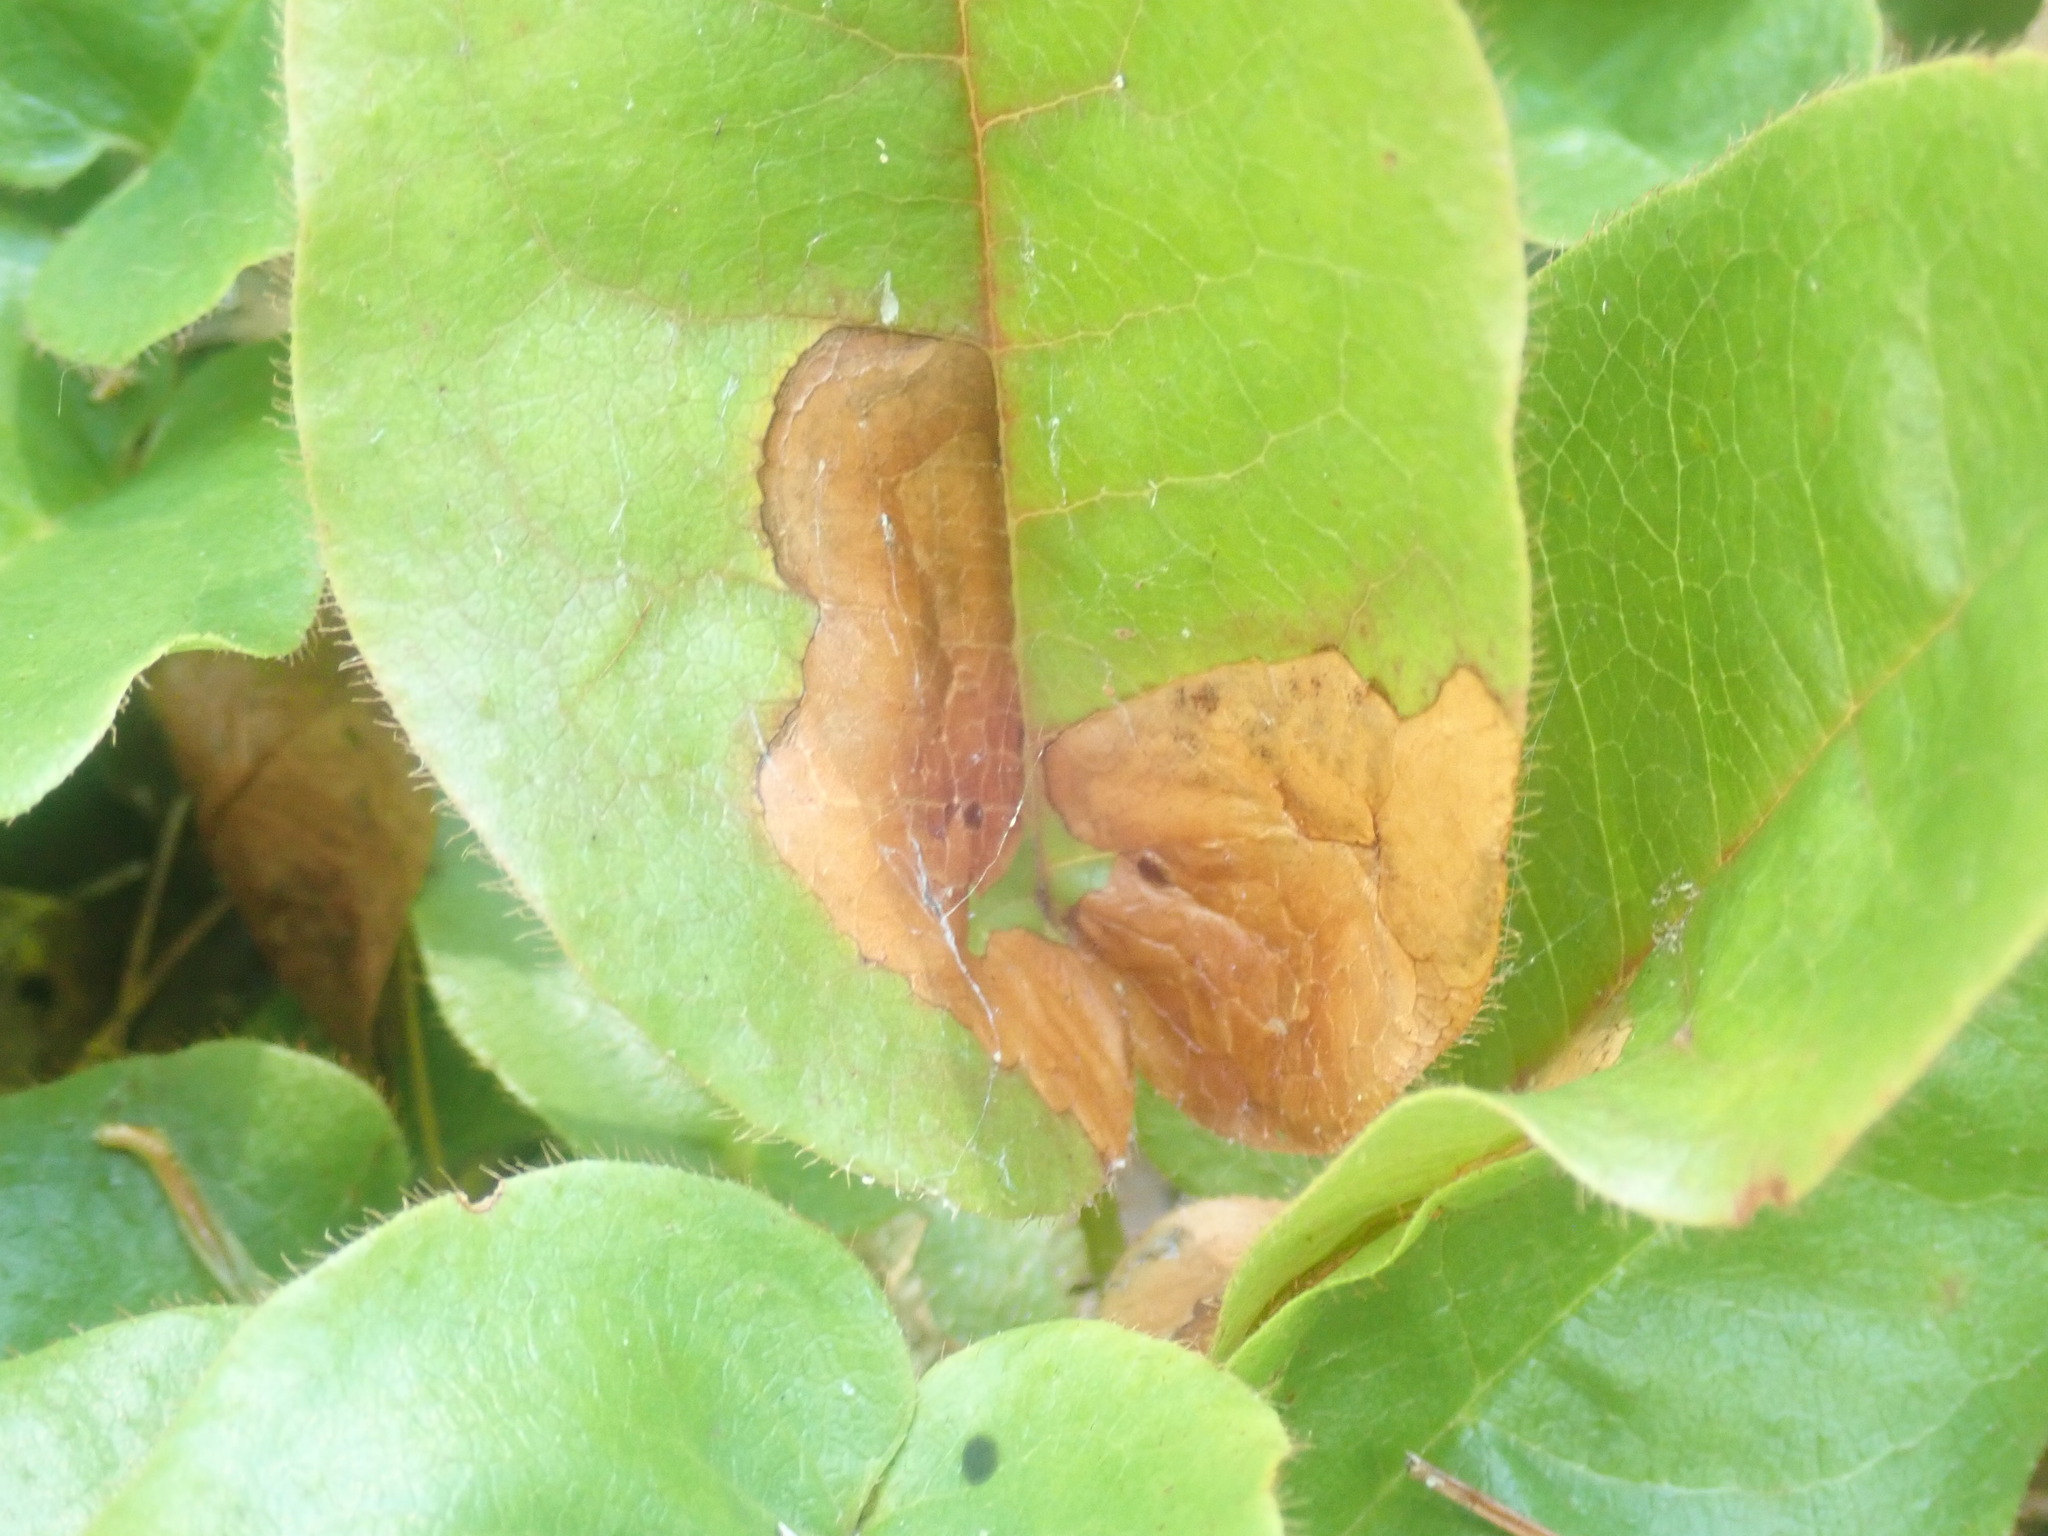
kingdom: Animalia
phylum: Arthropoda
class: Insecta
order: Coleoptera
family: Buprestidae
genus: Brachys
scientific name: Brachys
